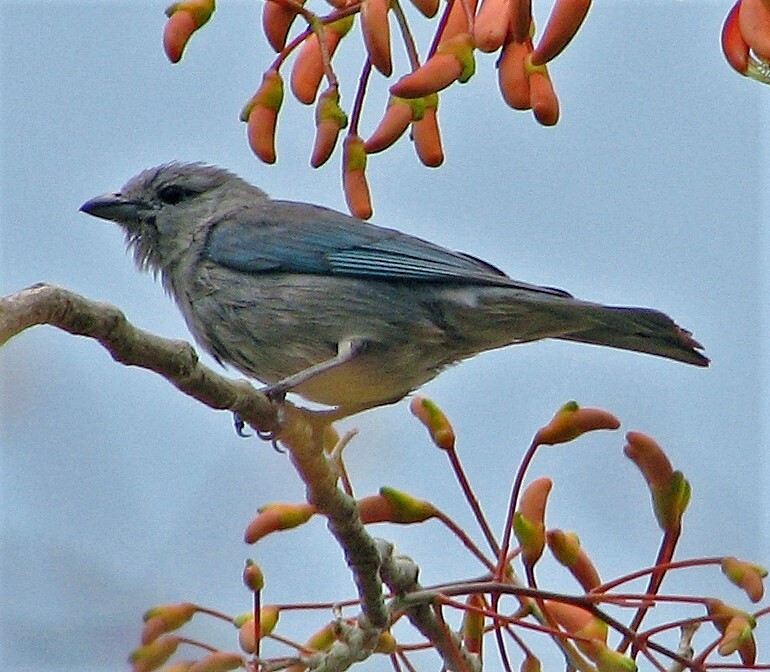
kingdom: Animalia
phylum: Chordata
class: Aves
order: Passeriformes
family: Thraupidae
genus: Thraupis
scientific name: Thraupis sayaca
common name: Sayaca tanager
